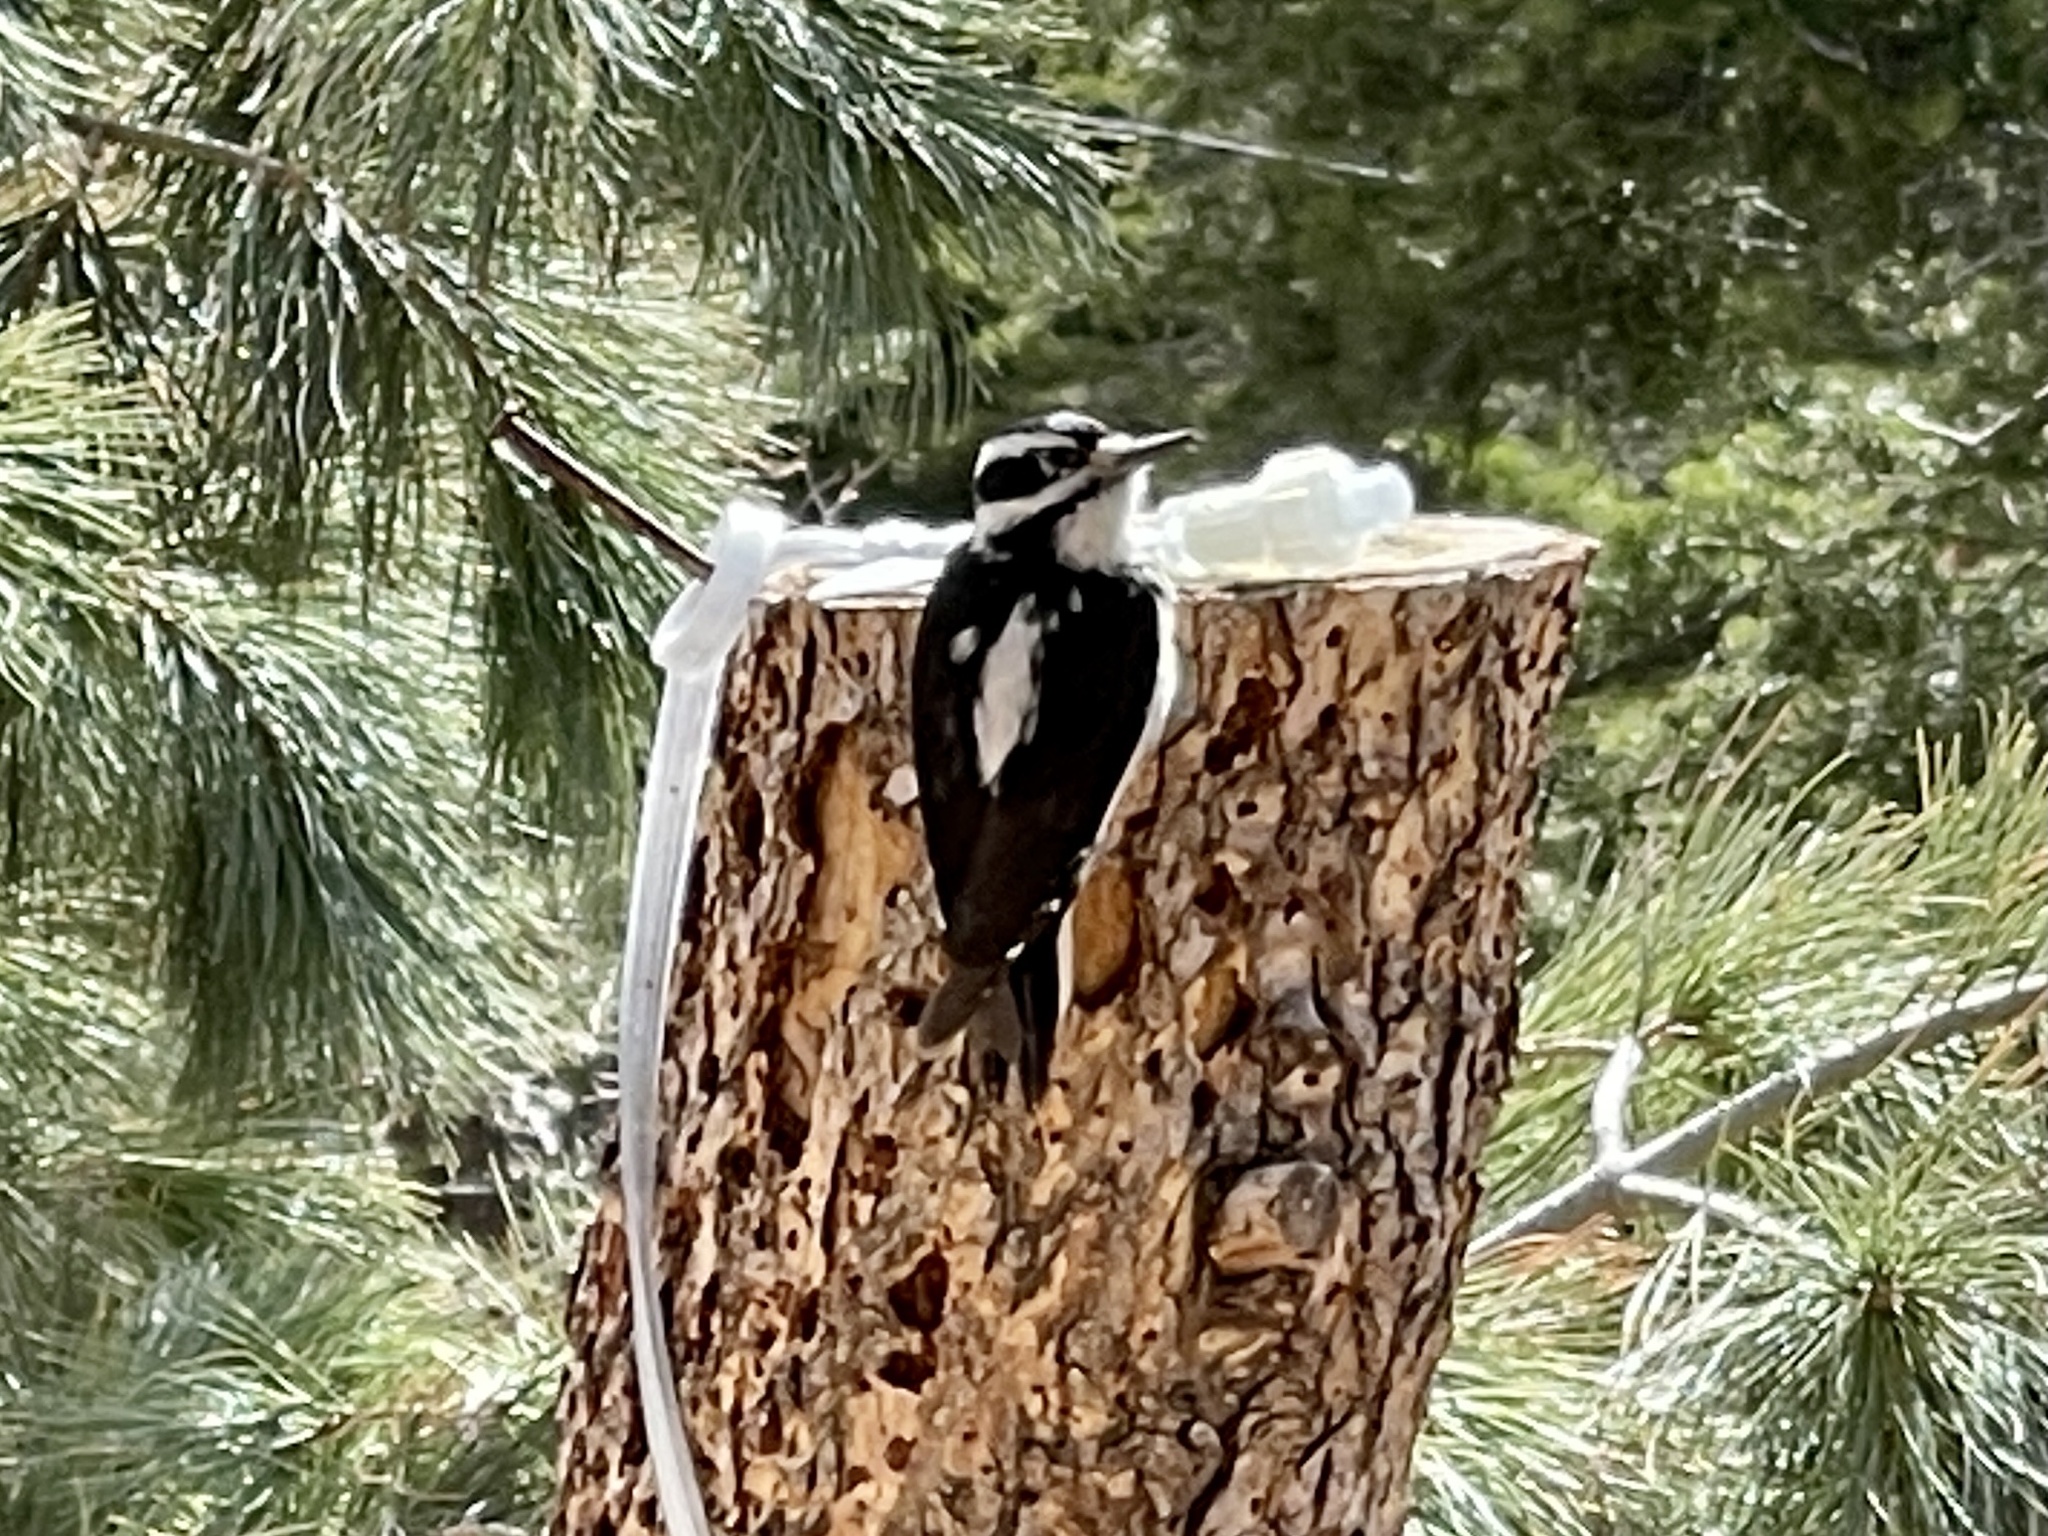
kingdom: Animalia
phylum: Chordata
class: Aves
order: Piciformes
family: Picidae
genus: Leuconotopicus
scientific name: Leuconotopicus villosus
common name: Hairy woodpecker
